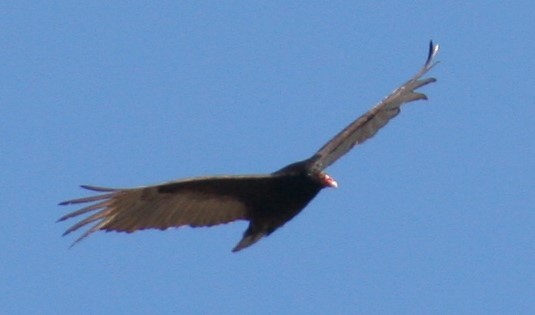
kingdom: Animalia
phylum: Chordata
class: Aves
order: Accipitriformes
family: Cathartidae
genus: Cathartes
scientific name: Cathartes aura
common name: Turkey vulture
